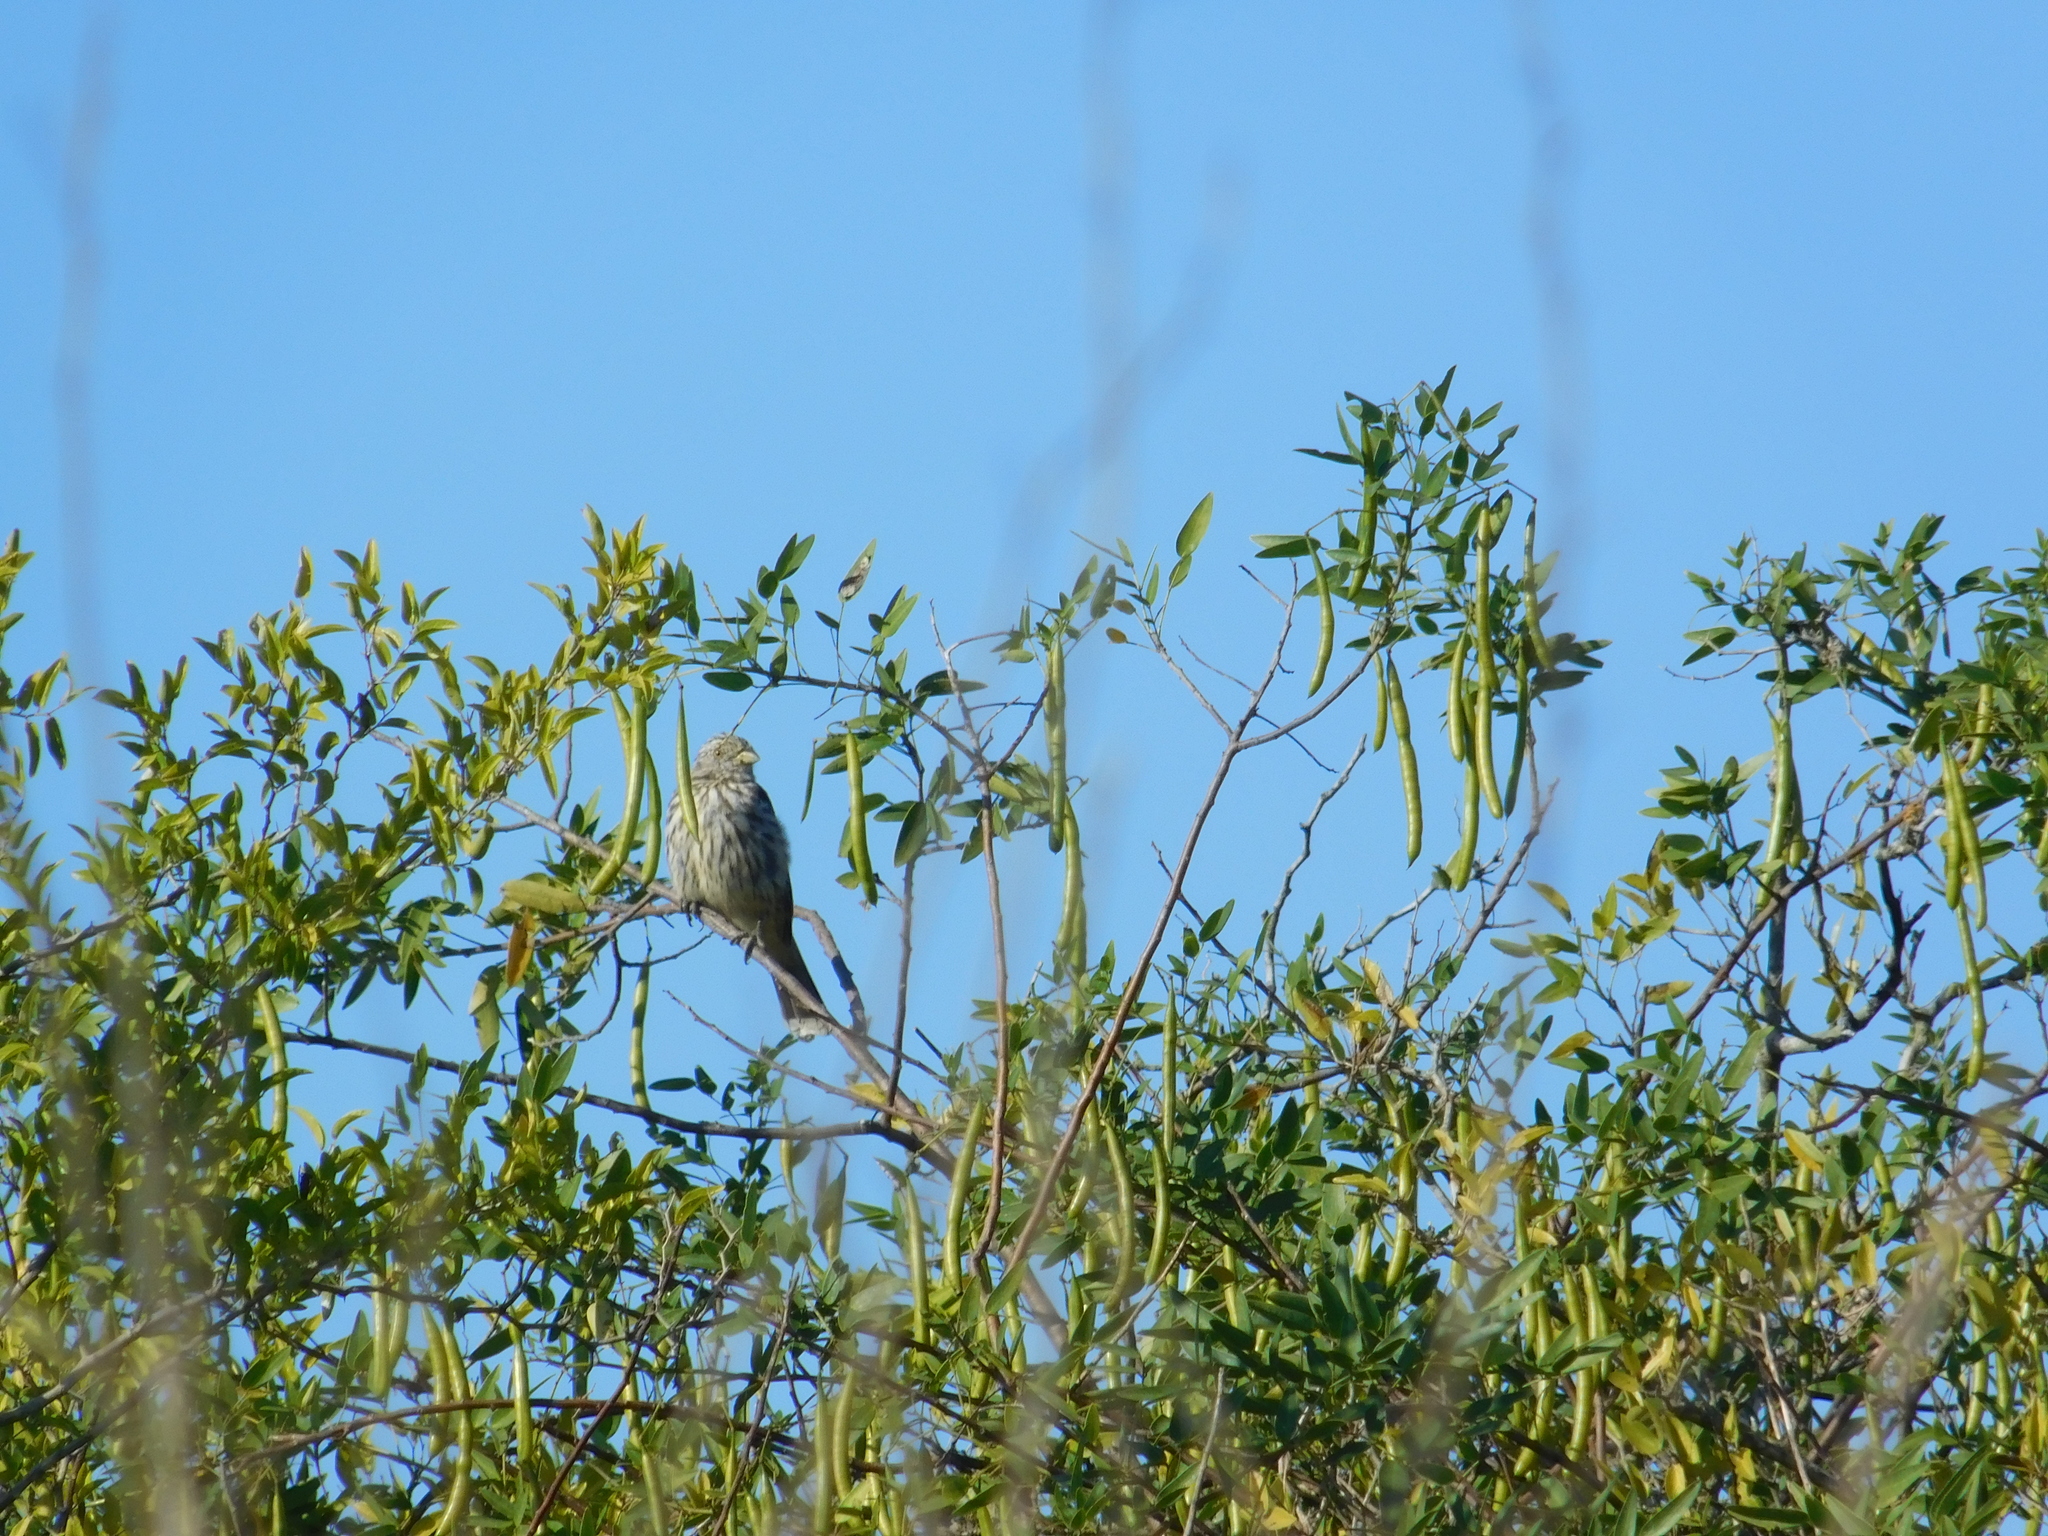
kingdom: Animalia
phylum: Chordata
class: Aves
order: Passeriformes
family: Cotingidae
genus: Phytotoma
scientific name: Phytotoma rutila
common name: White-tipped plantcutter
